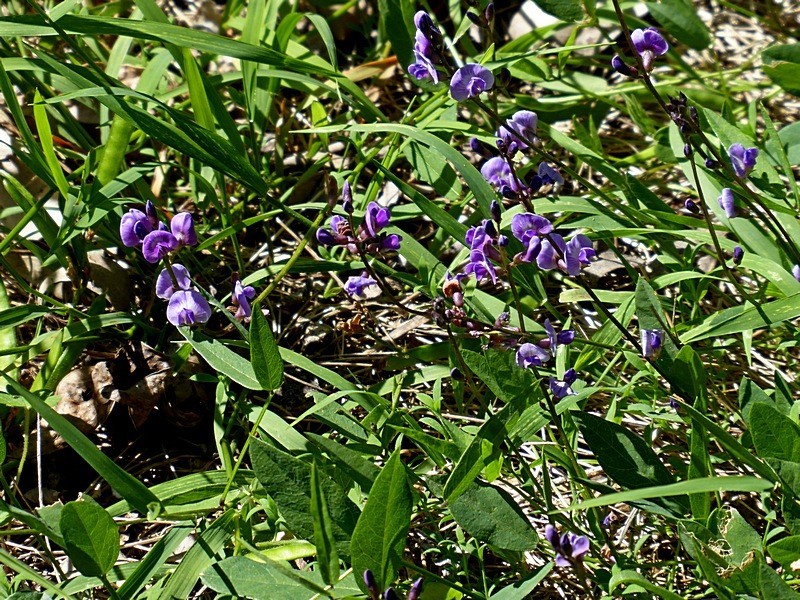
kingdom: Plantae
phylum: Tracheophyta
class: Magnoliopsida
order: Fabales
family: Fabaceae
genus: Glycine
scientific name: Glycine tabacina
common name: Pea glycine
